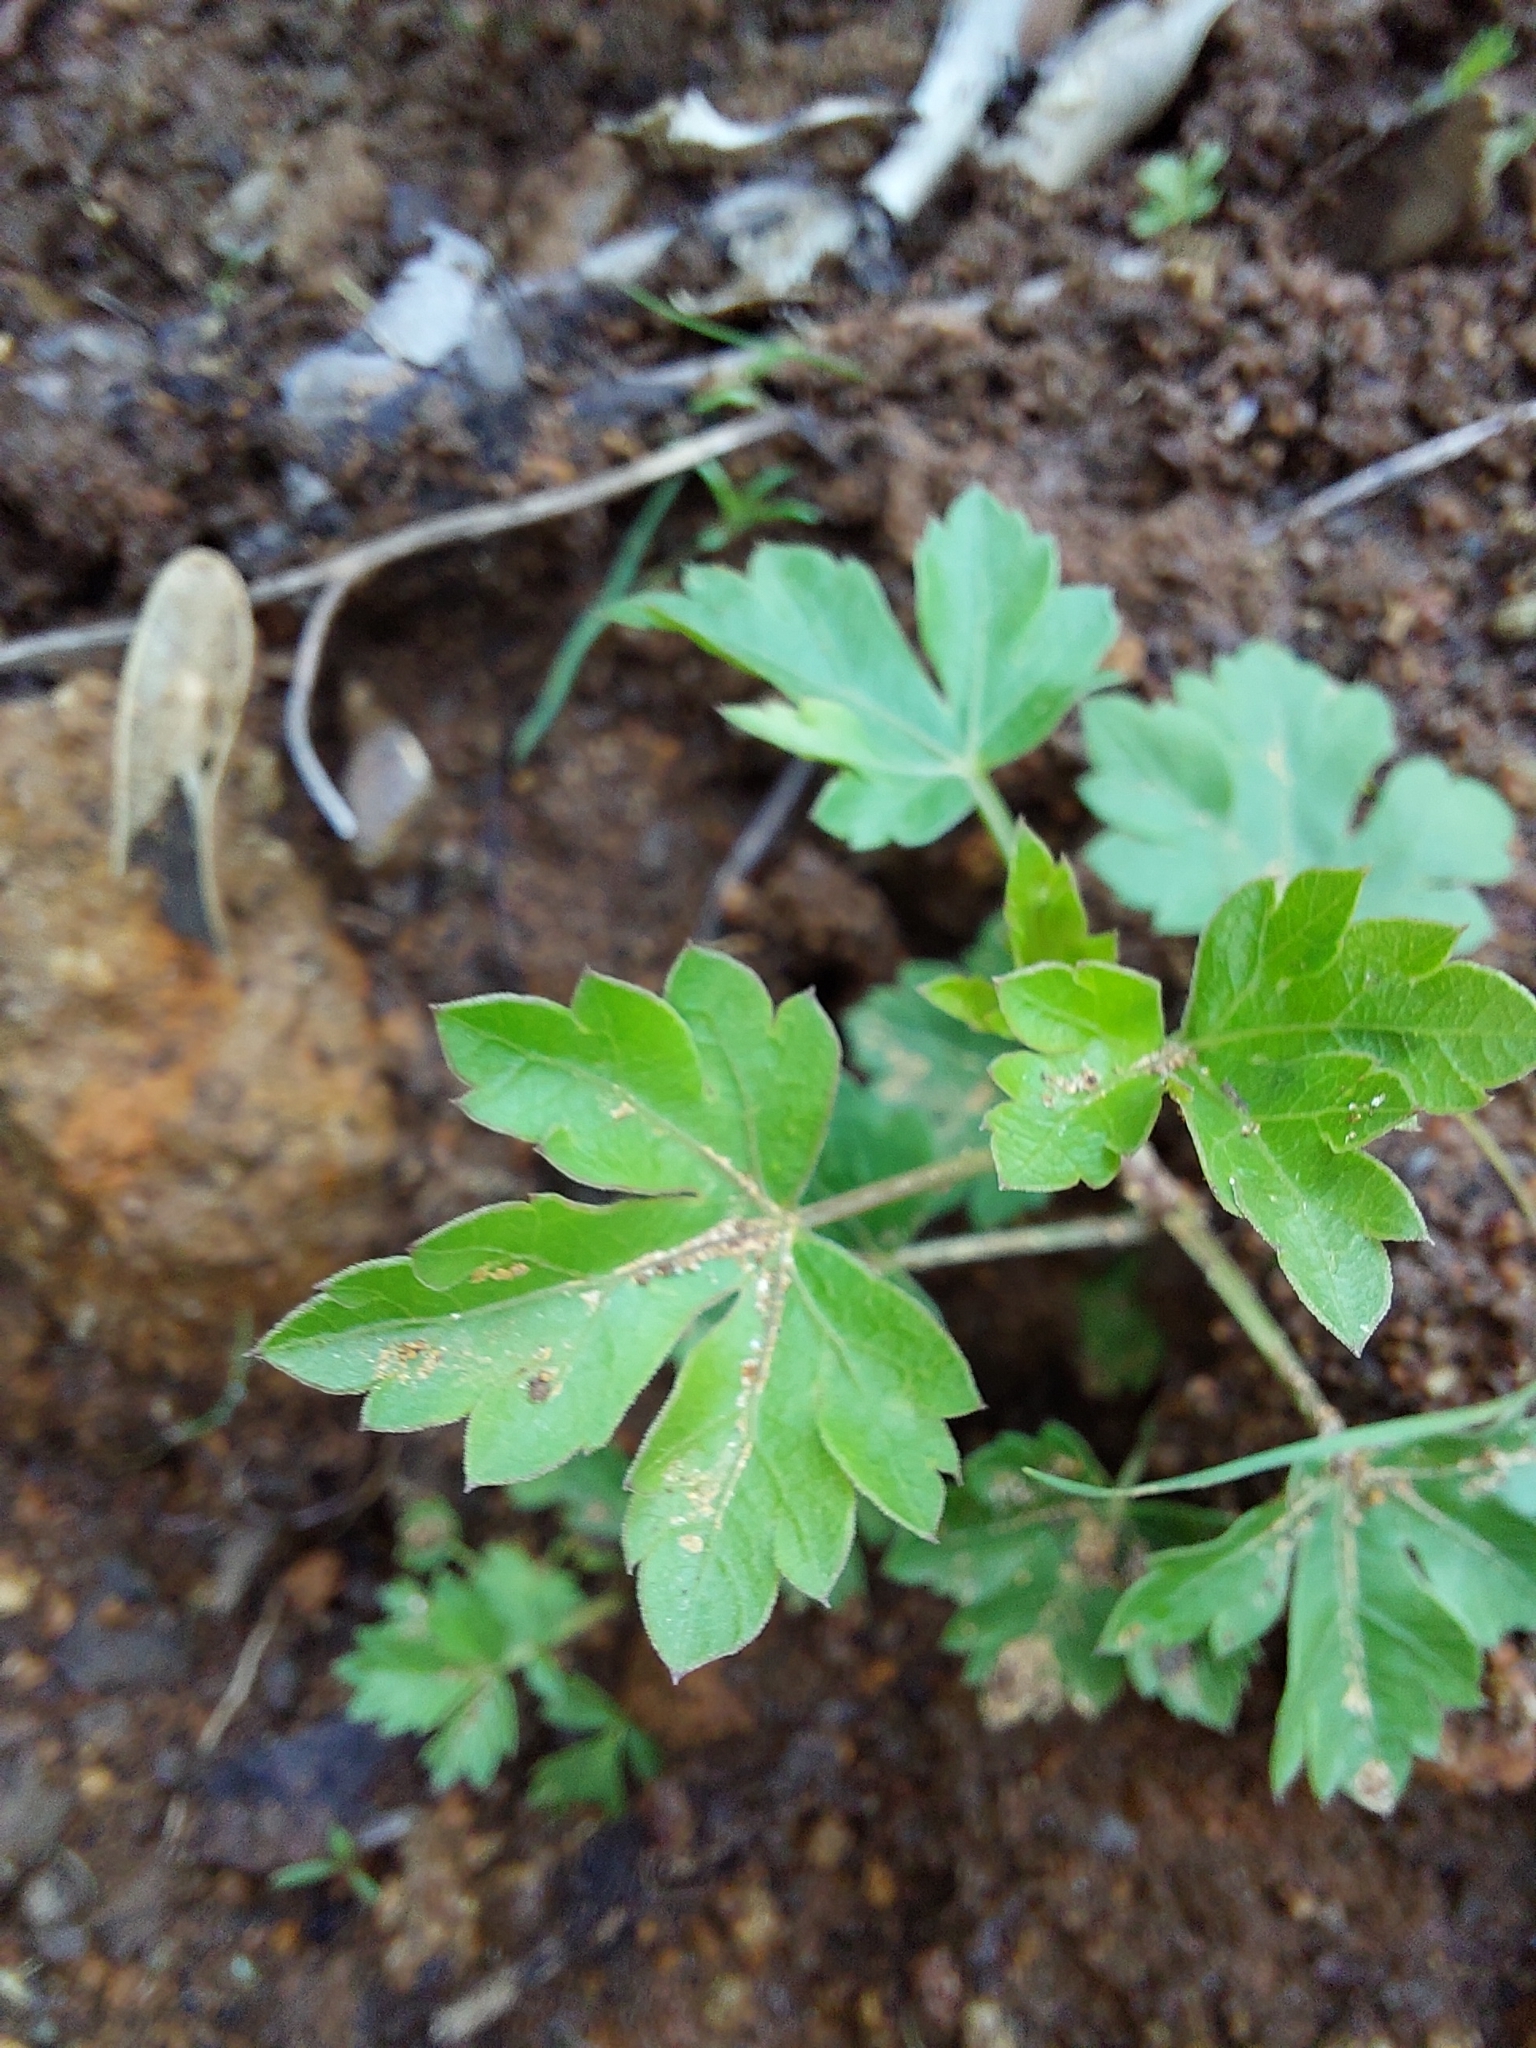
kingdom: Plantae
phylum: Tracheophyta
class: Magnoliopsida
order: Apiales
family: Apiaceae
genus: Polemannia
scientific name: Polemannia montana
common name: Mountain false parsley-tree
